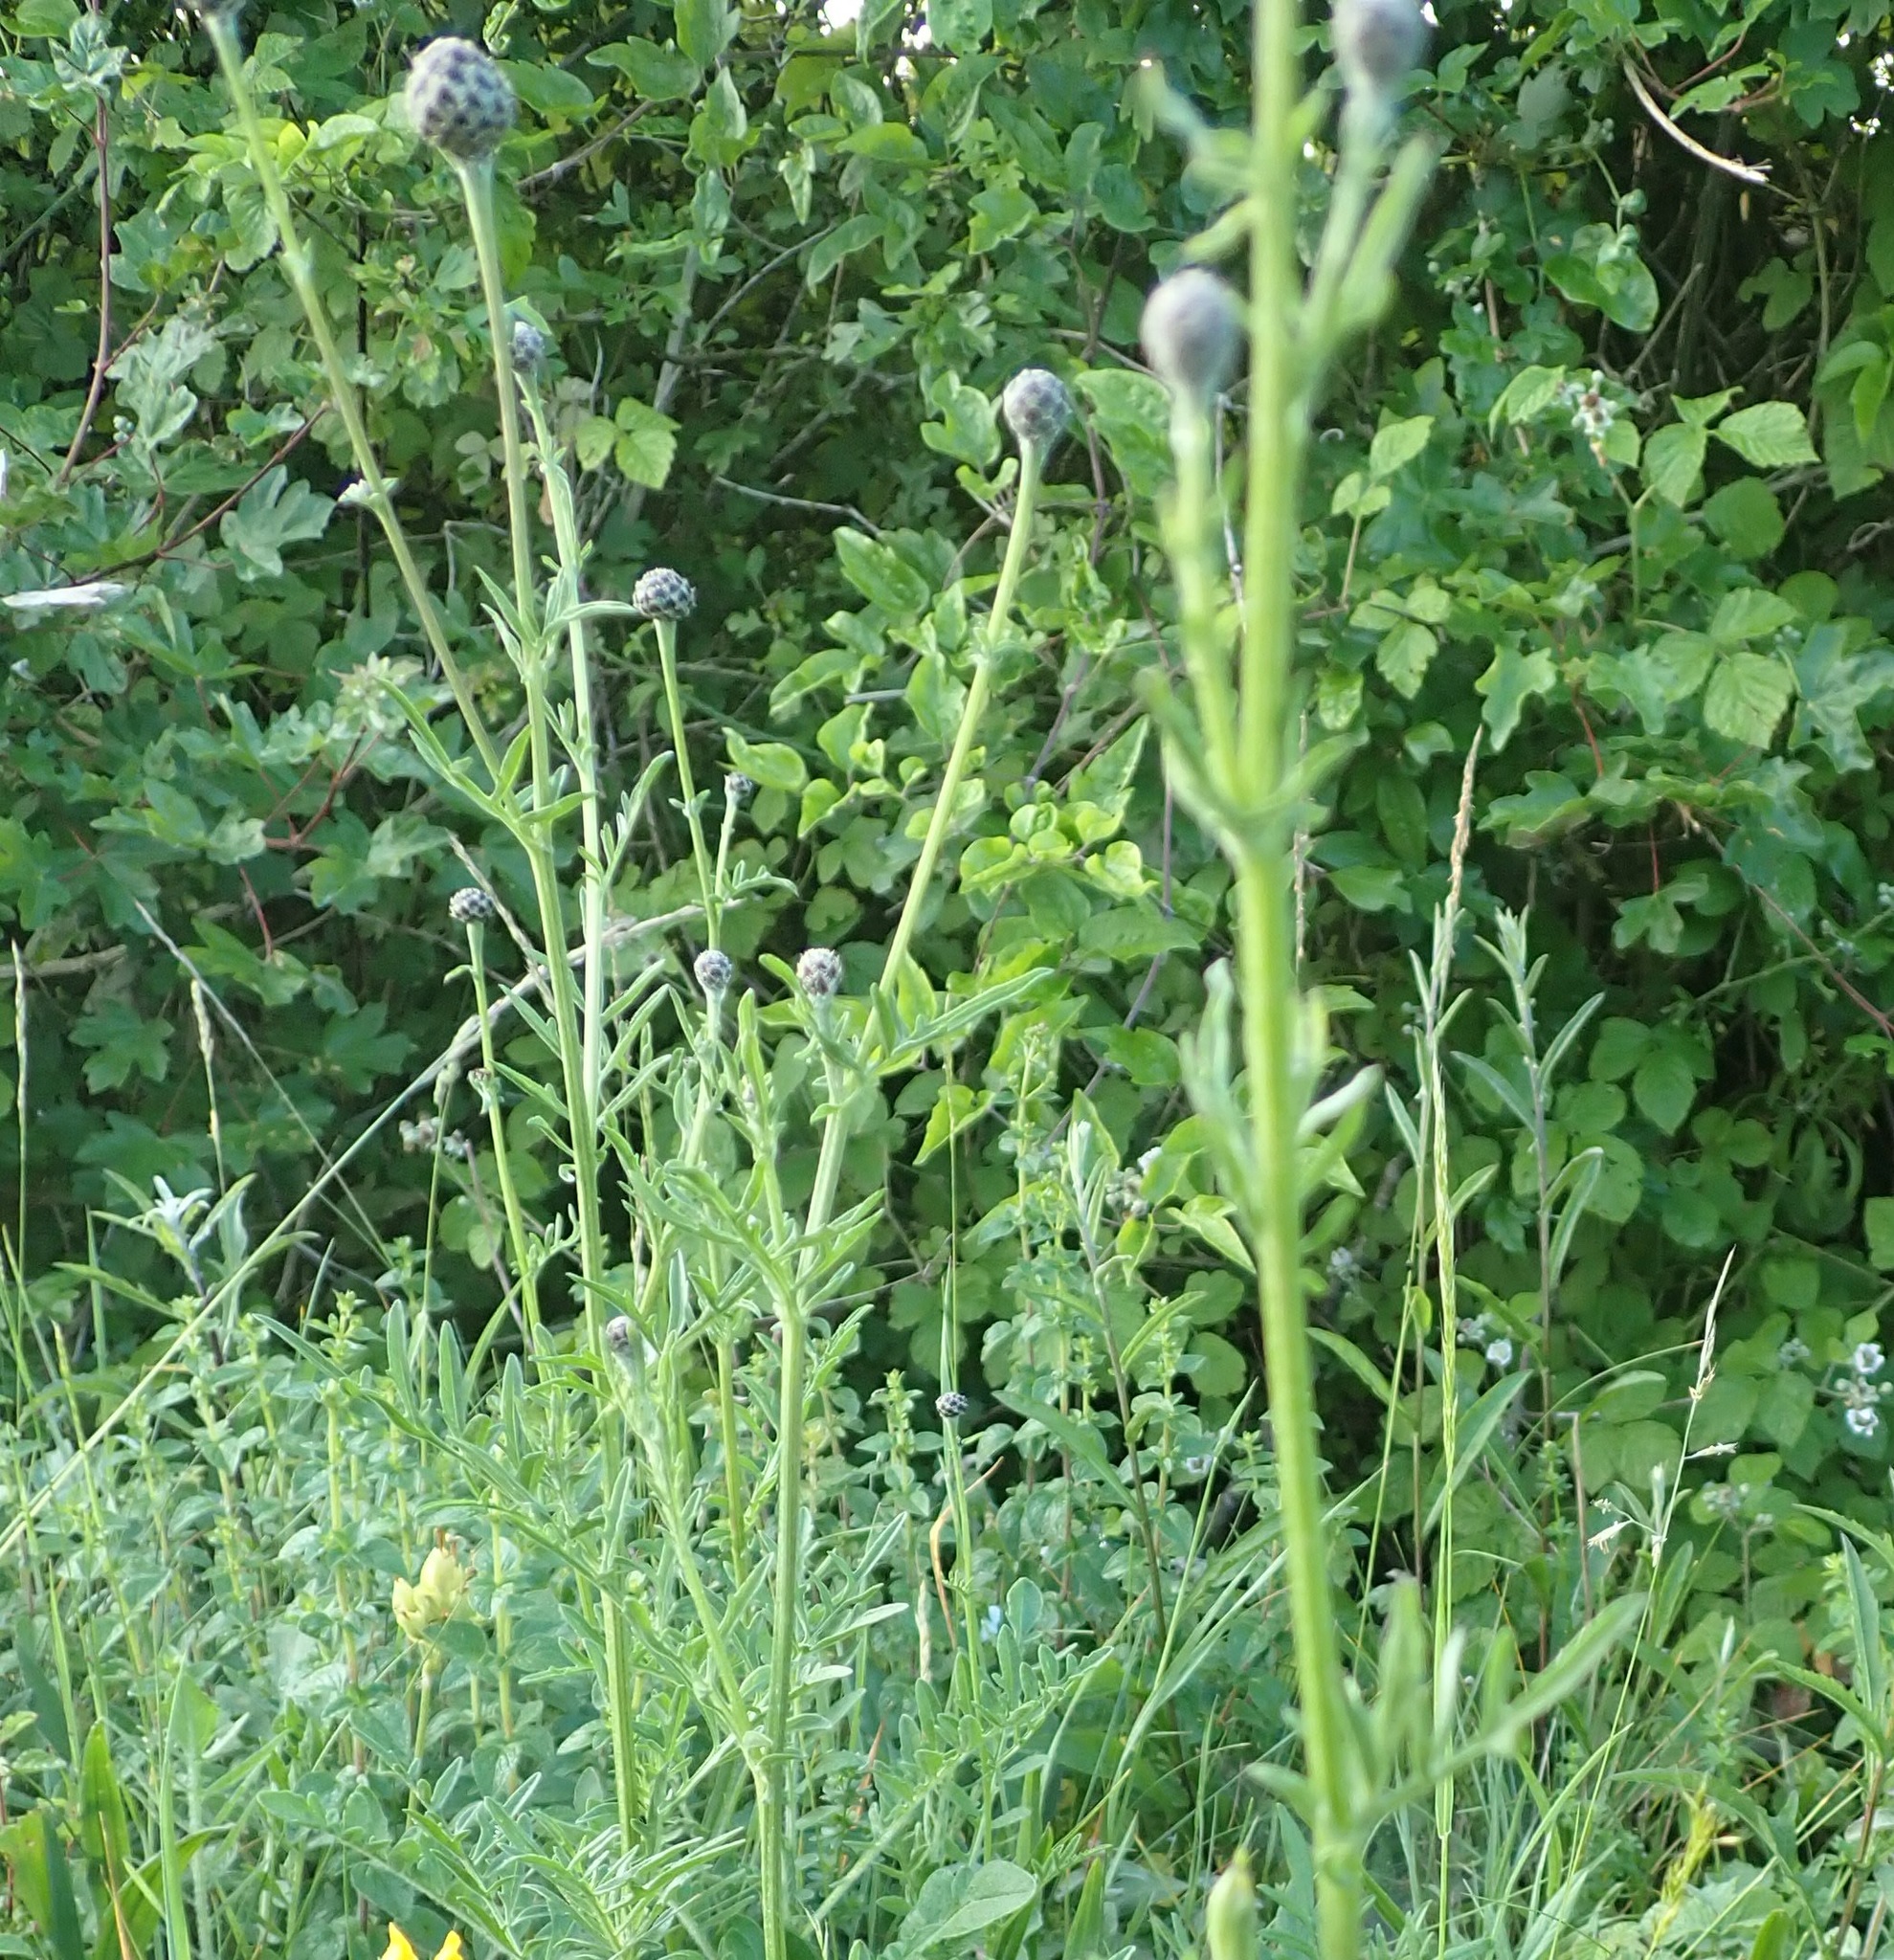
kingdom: Plantae
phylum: Tracheophyta
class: Magnoliopsida
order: Lamiales
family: Orobanchaceae
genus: Orobanche
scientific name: Orobanche elatior
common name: Knapweed broomrape
